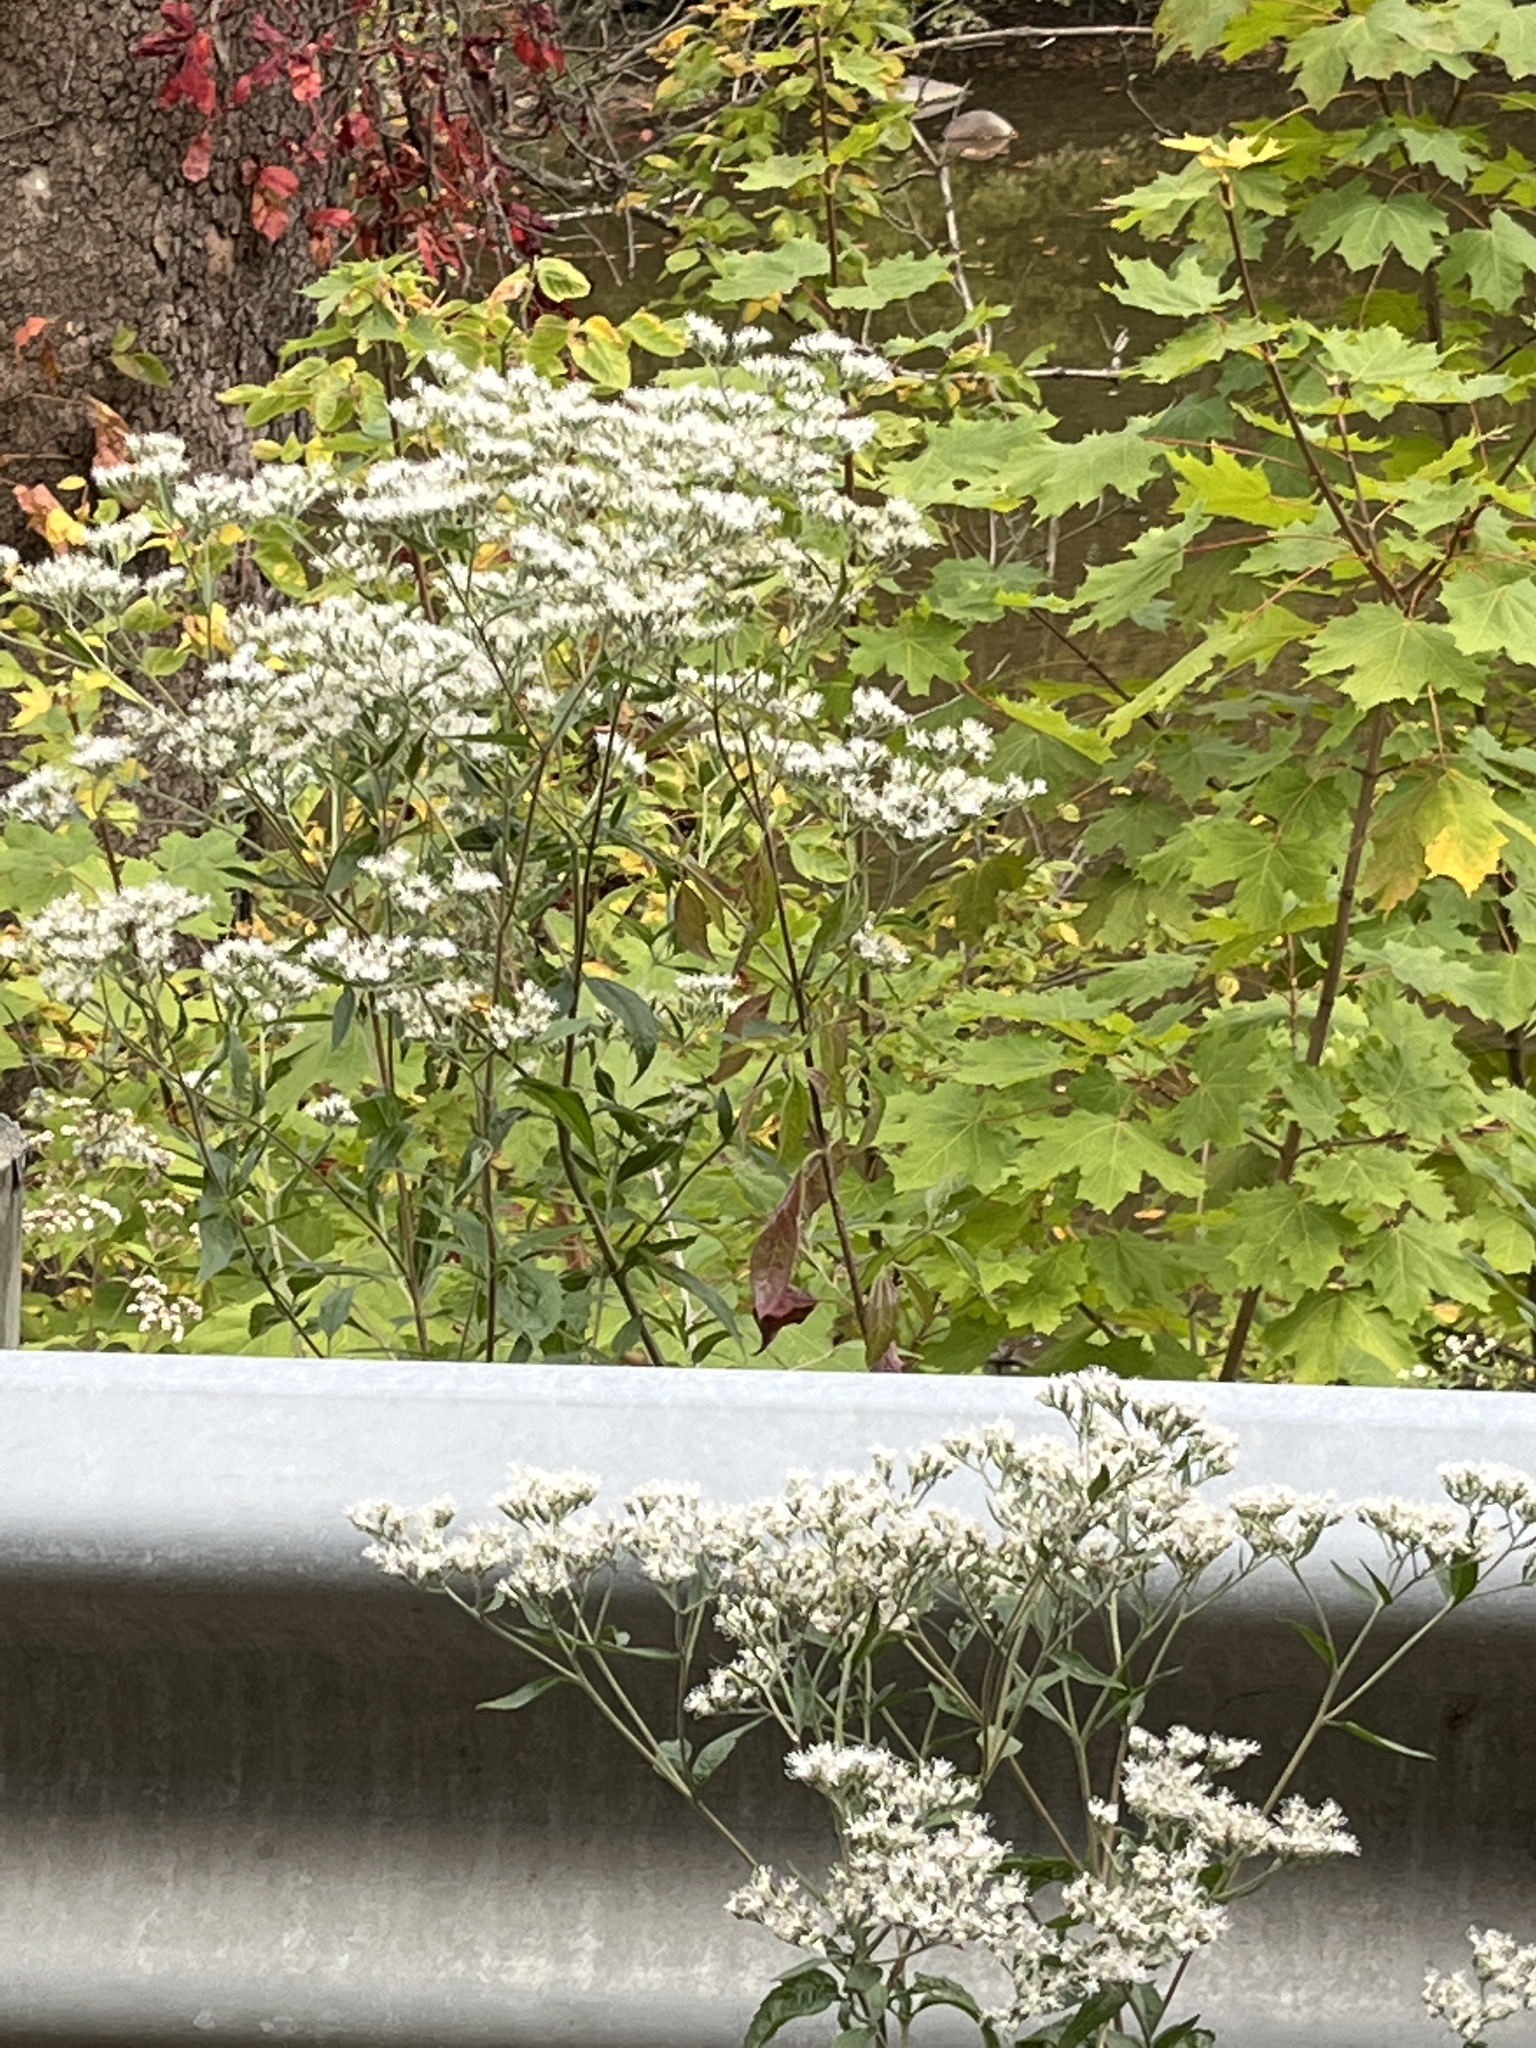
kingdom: Plantae
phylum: Tracheophyta
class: Magnoliopsida
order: Asterales
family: Asteraceae
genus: Eupatorium
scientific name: Eupatorium serotinum
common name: Late boneset
